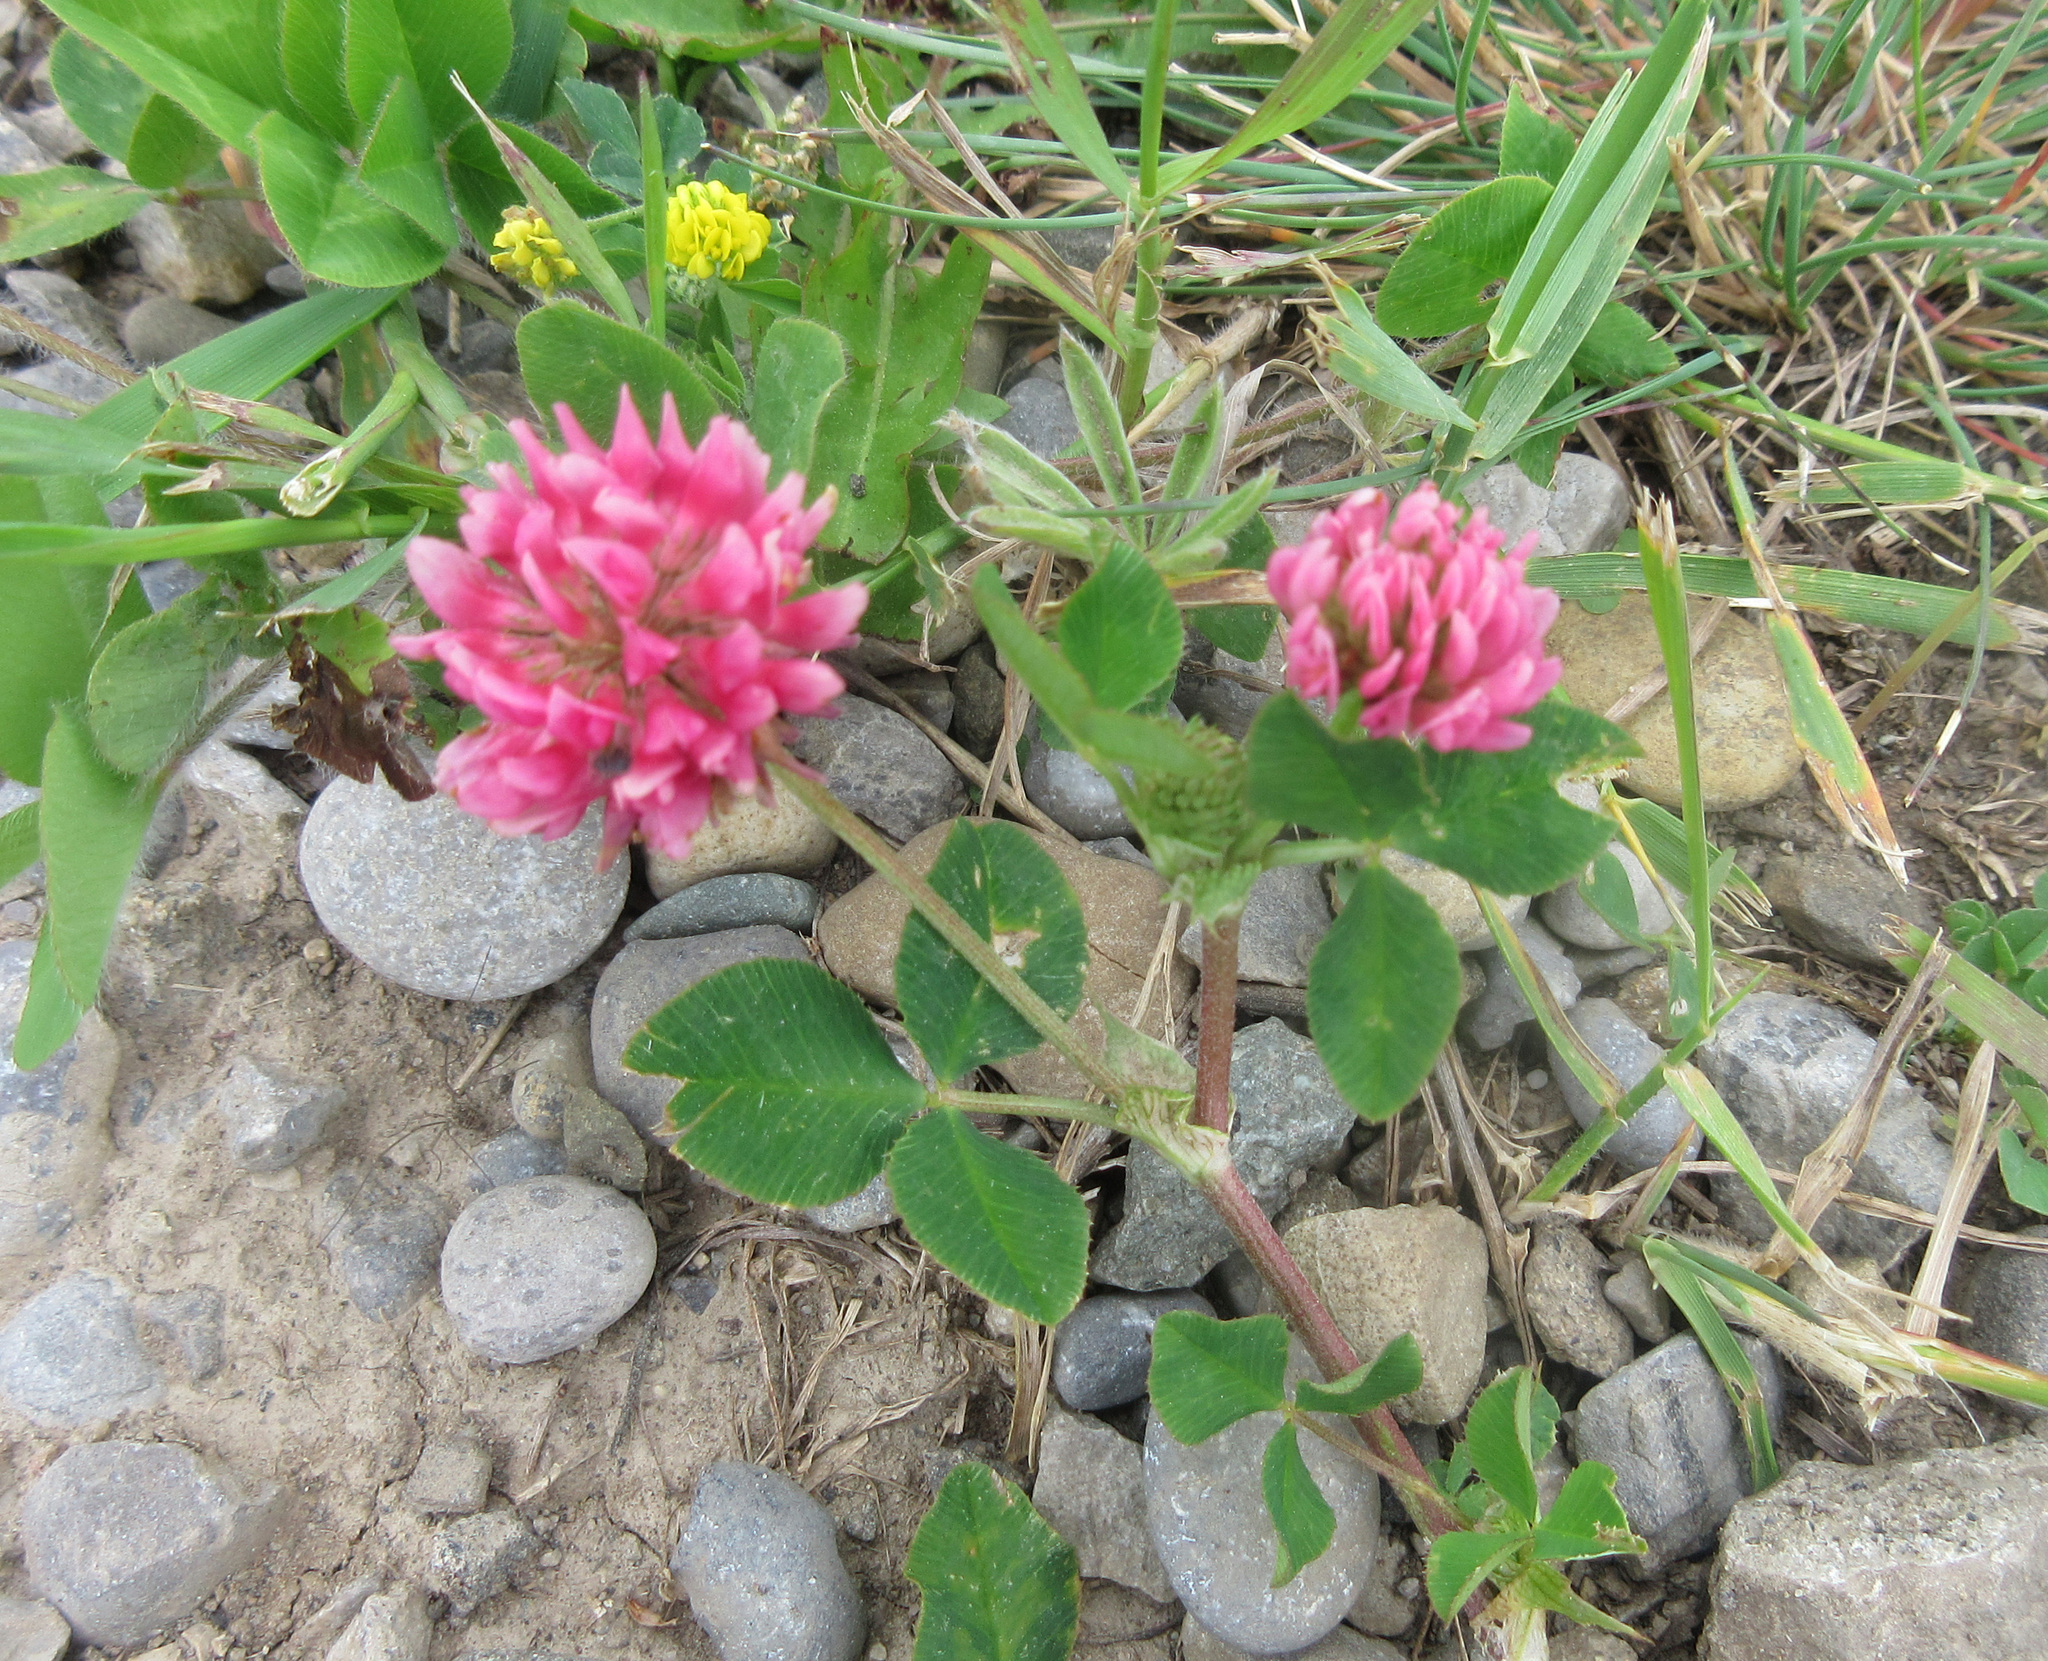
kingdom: Plantae
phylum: Tracheophyta
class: Magnoliopsida
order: Fabales
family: Fabaceae
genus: Trifolium
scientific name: Trifolium pratense
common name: Red clover
